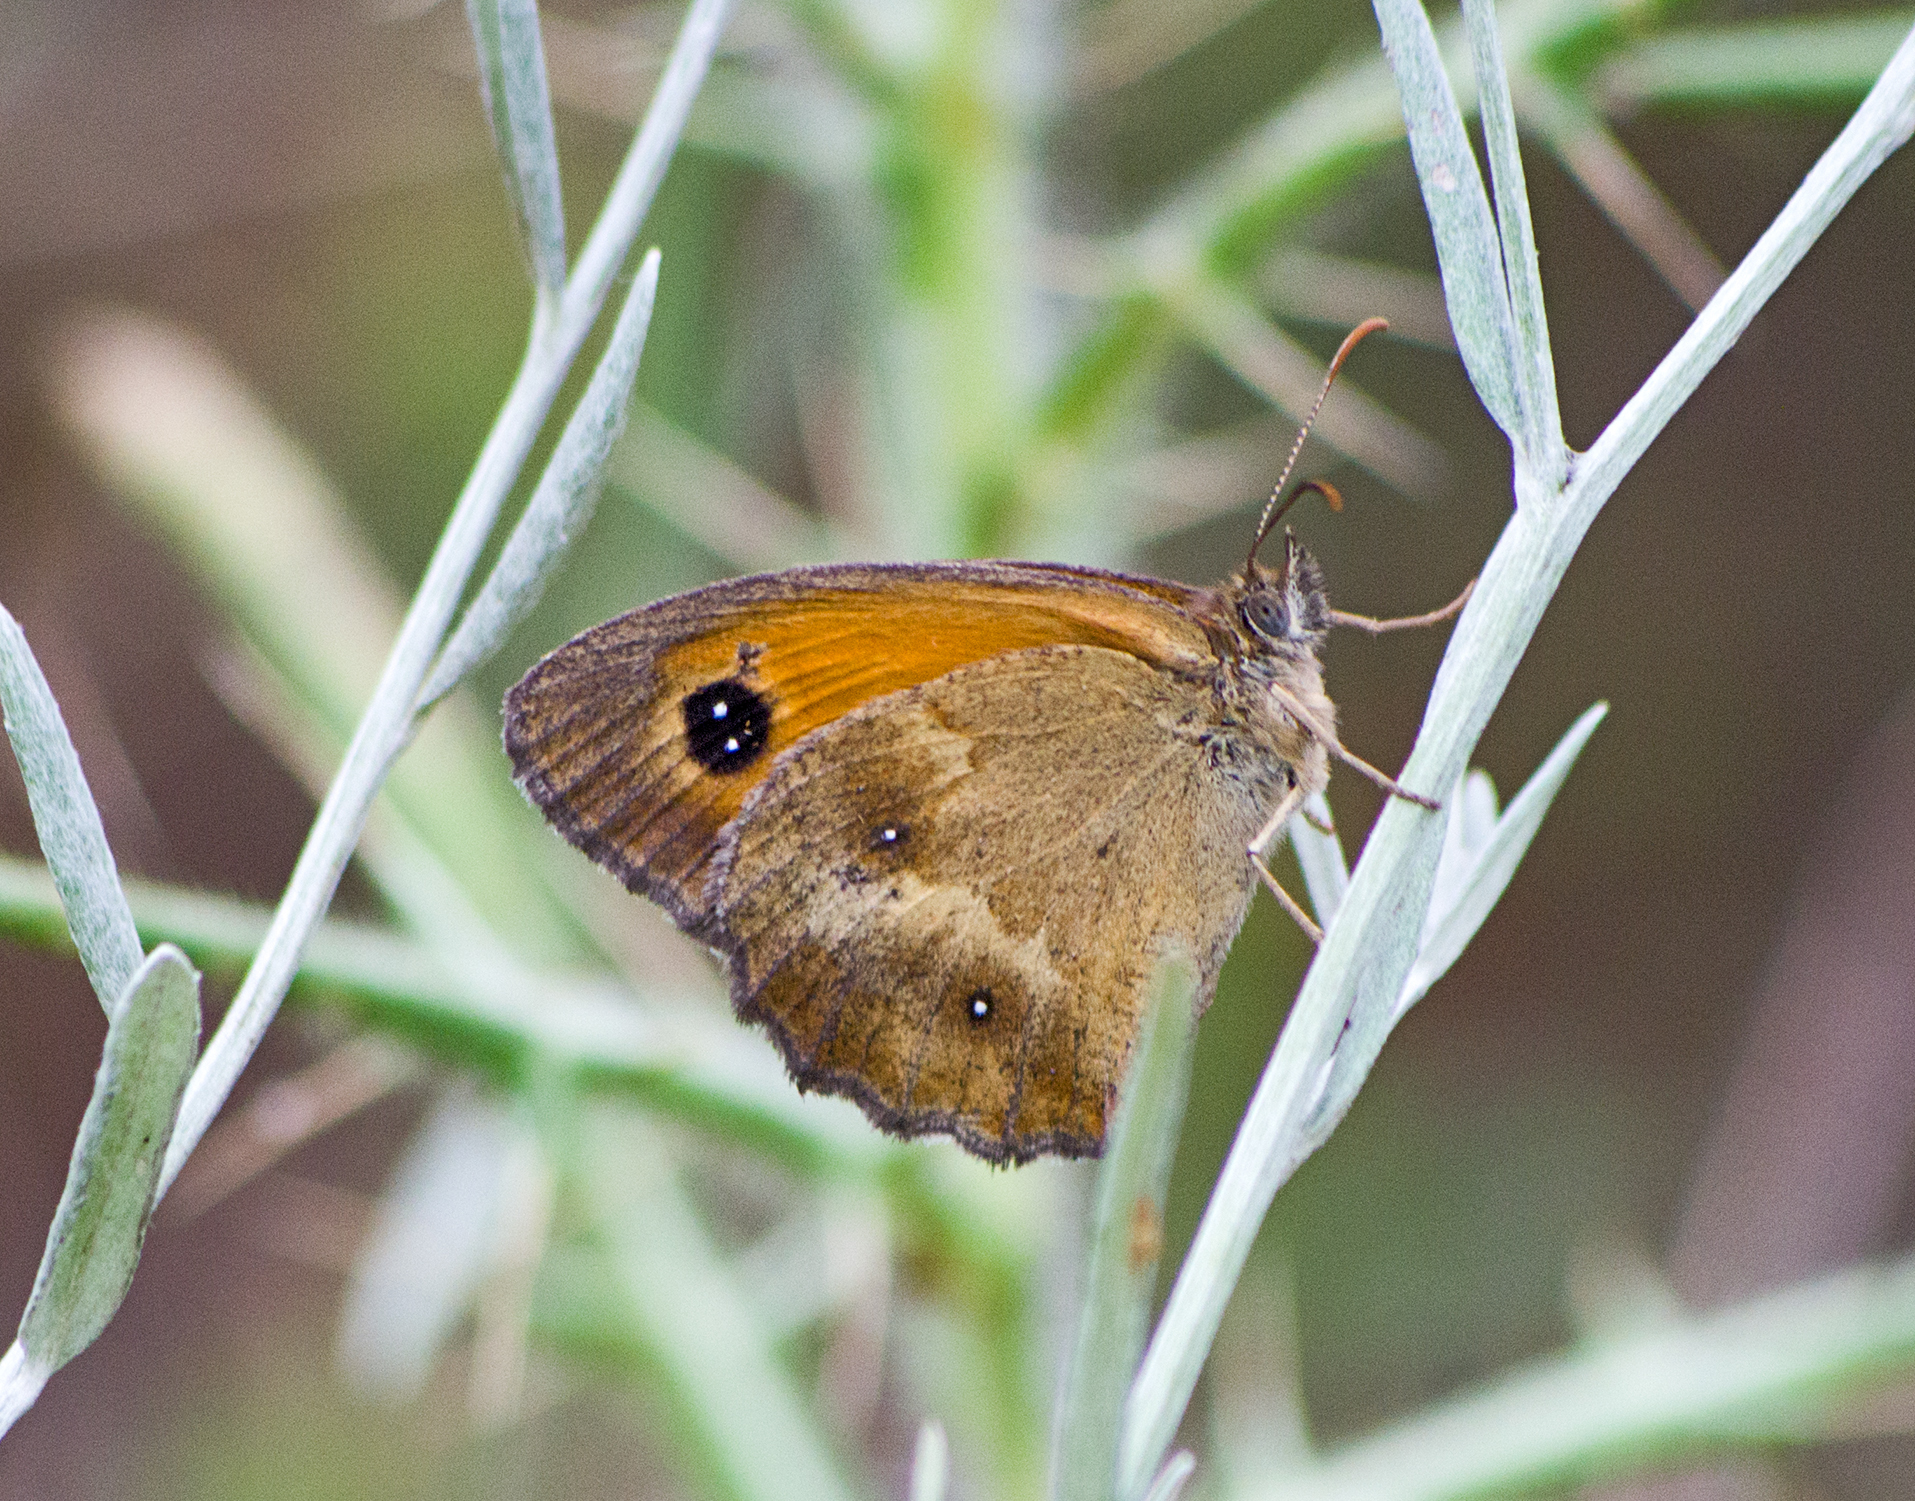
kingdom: Animalia
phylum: Arthropoda
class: Insecta
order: Lepidoptera
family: Nymphalidae
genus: Pyronia
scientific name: Pyronia tithonus
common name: Gatekeeper
